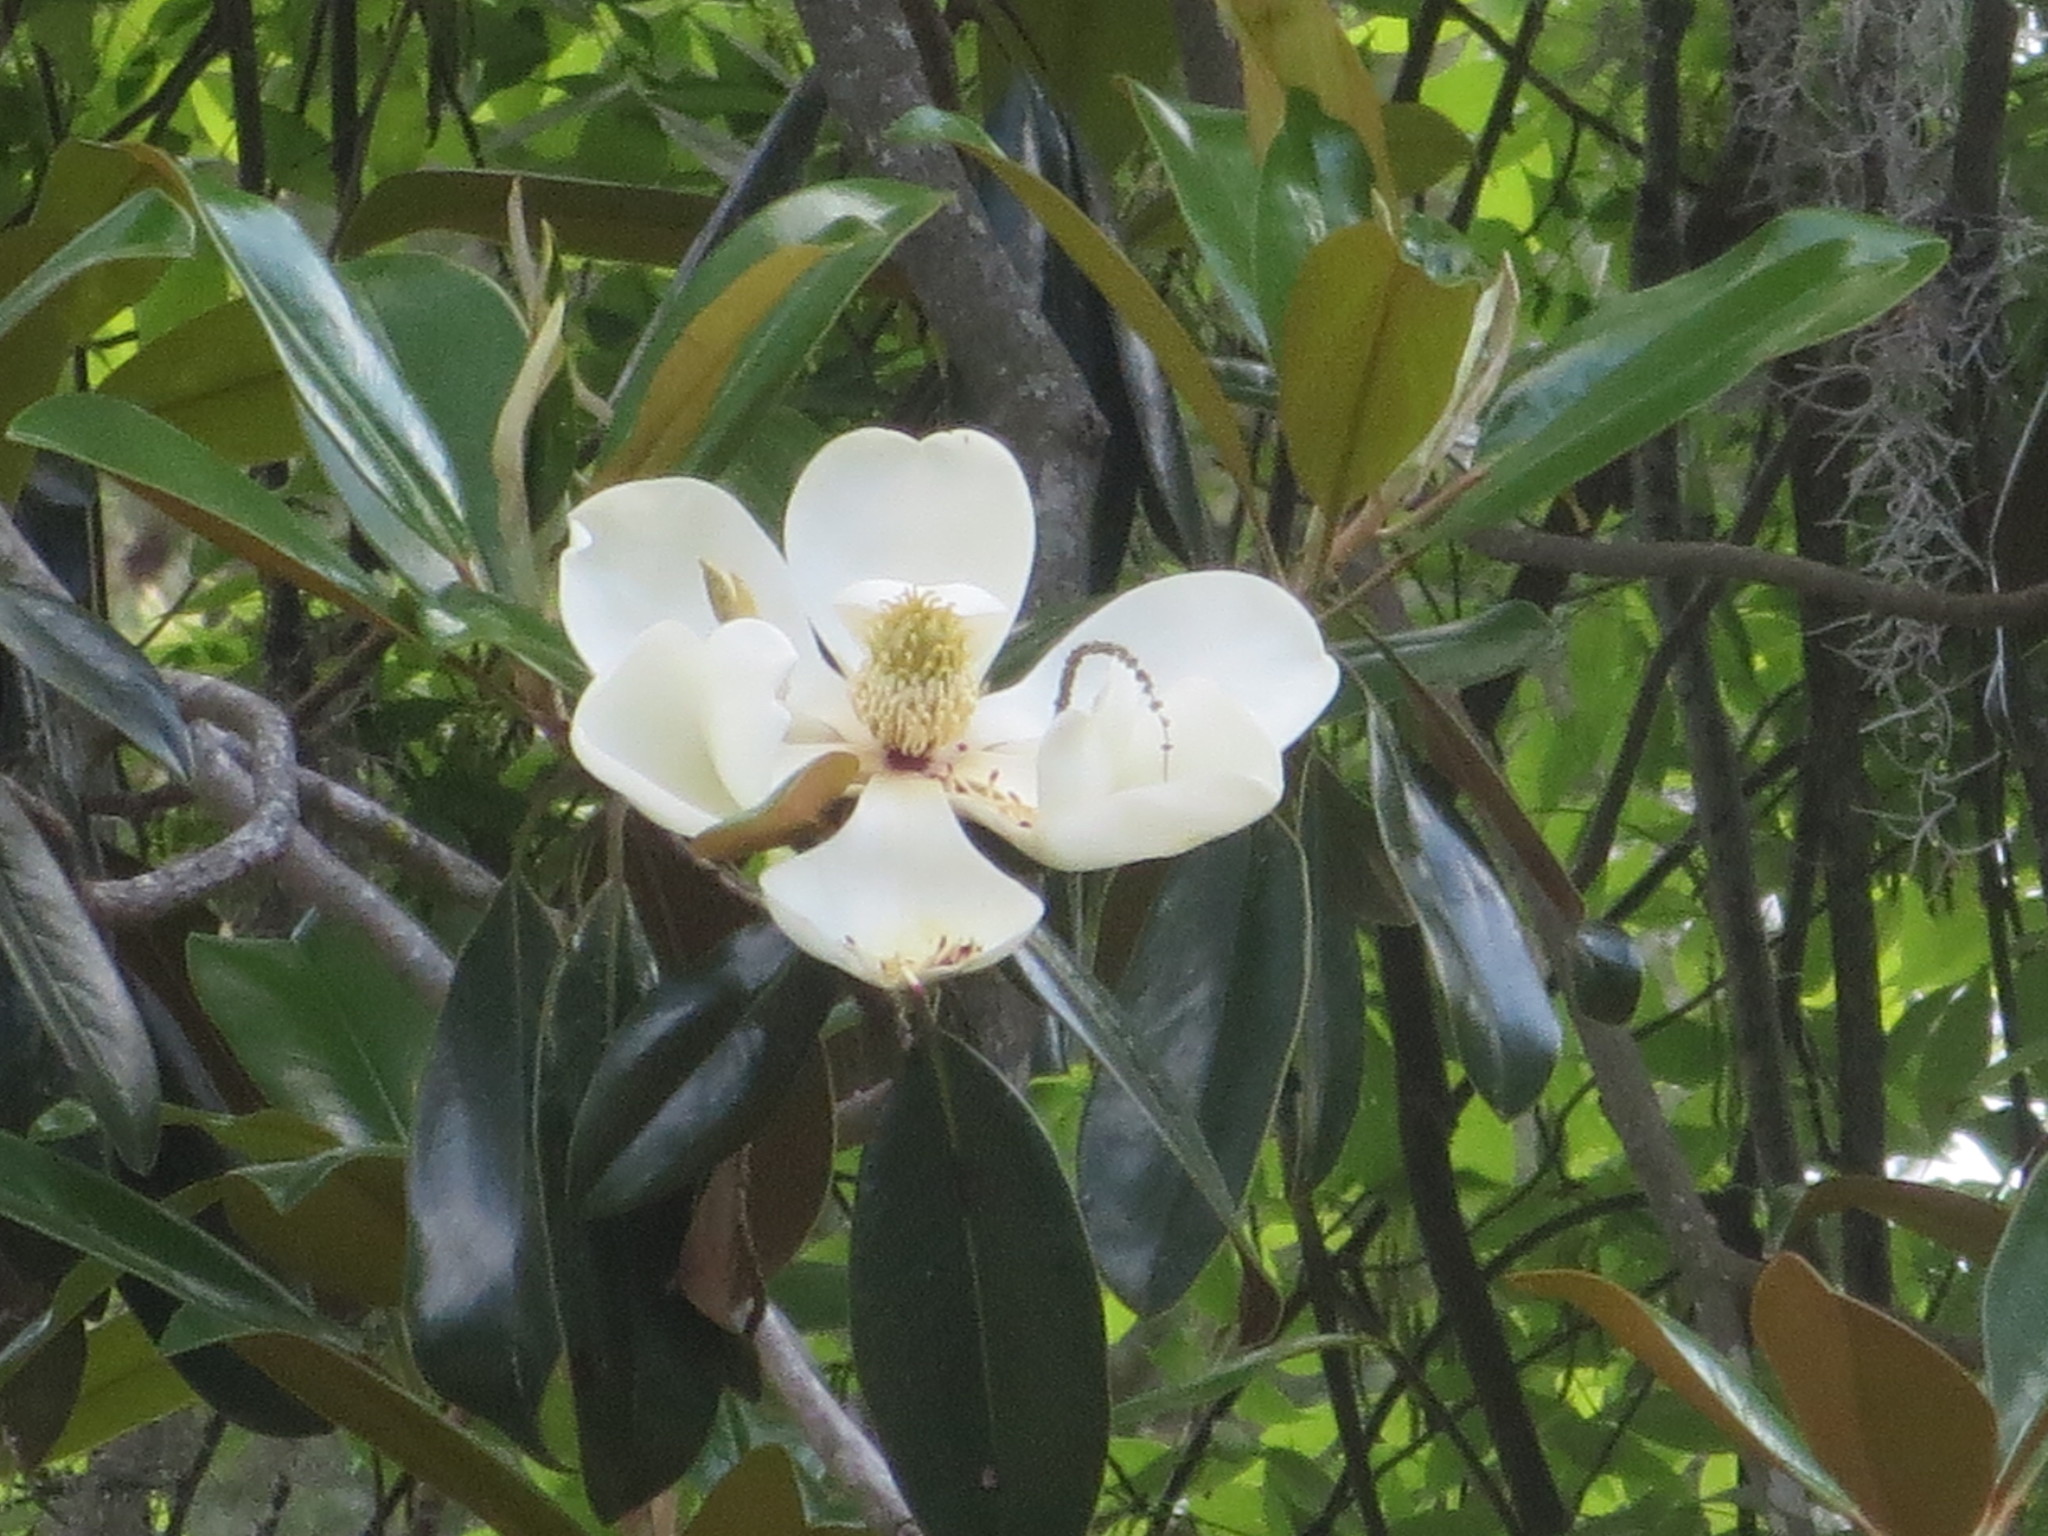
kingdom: Plantae
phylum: Tracheophyta
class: Magnoliopsida
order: Magnoliales
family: Magnoliaceae
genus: Magnolia
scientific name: Magnolia grandiflora
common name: Southern magnolia
